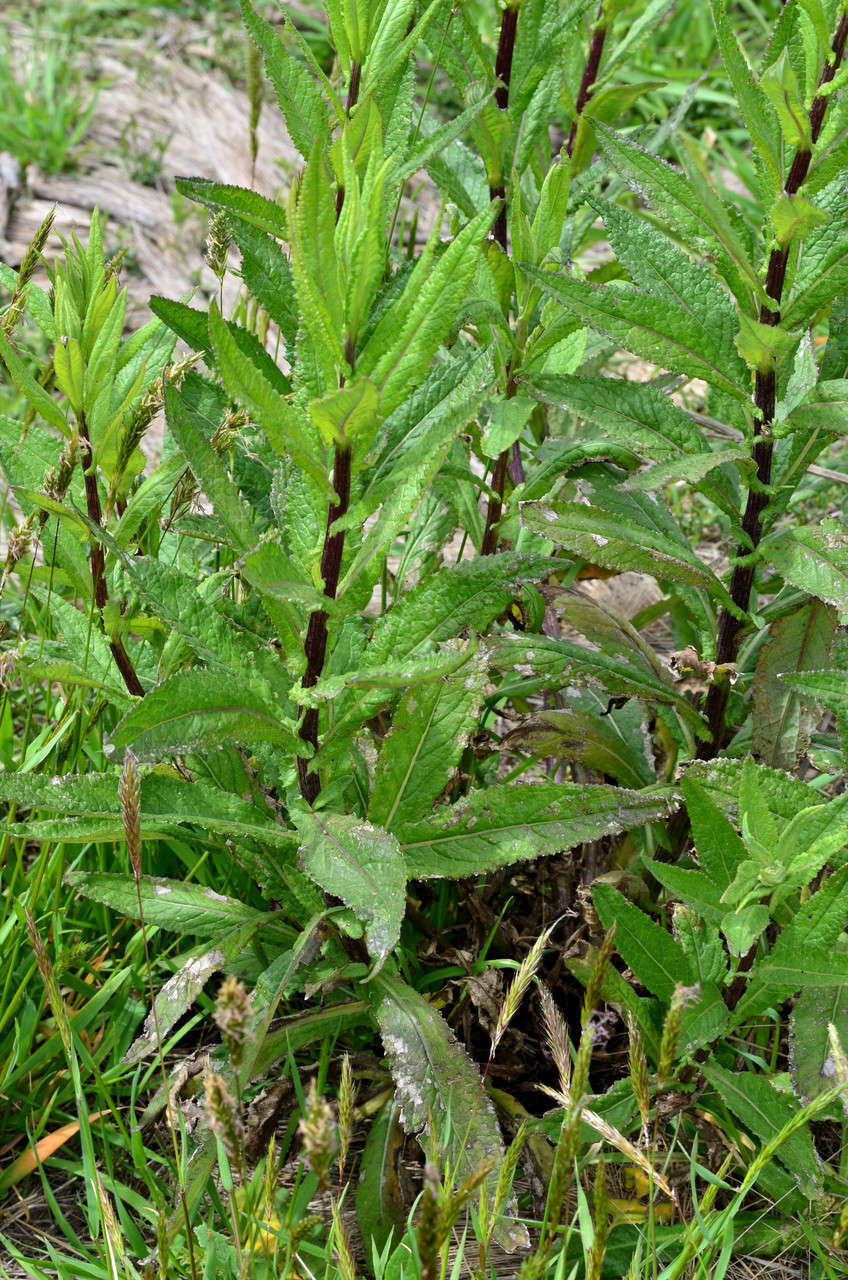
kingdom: Plantae
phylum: Tracheophyta
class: Magnoliopsida
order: Asterales
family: Asteraceae
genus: Senecio
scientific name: Senecio minimus
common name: Toothed fireweed
